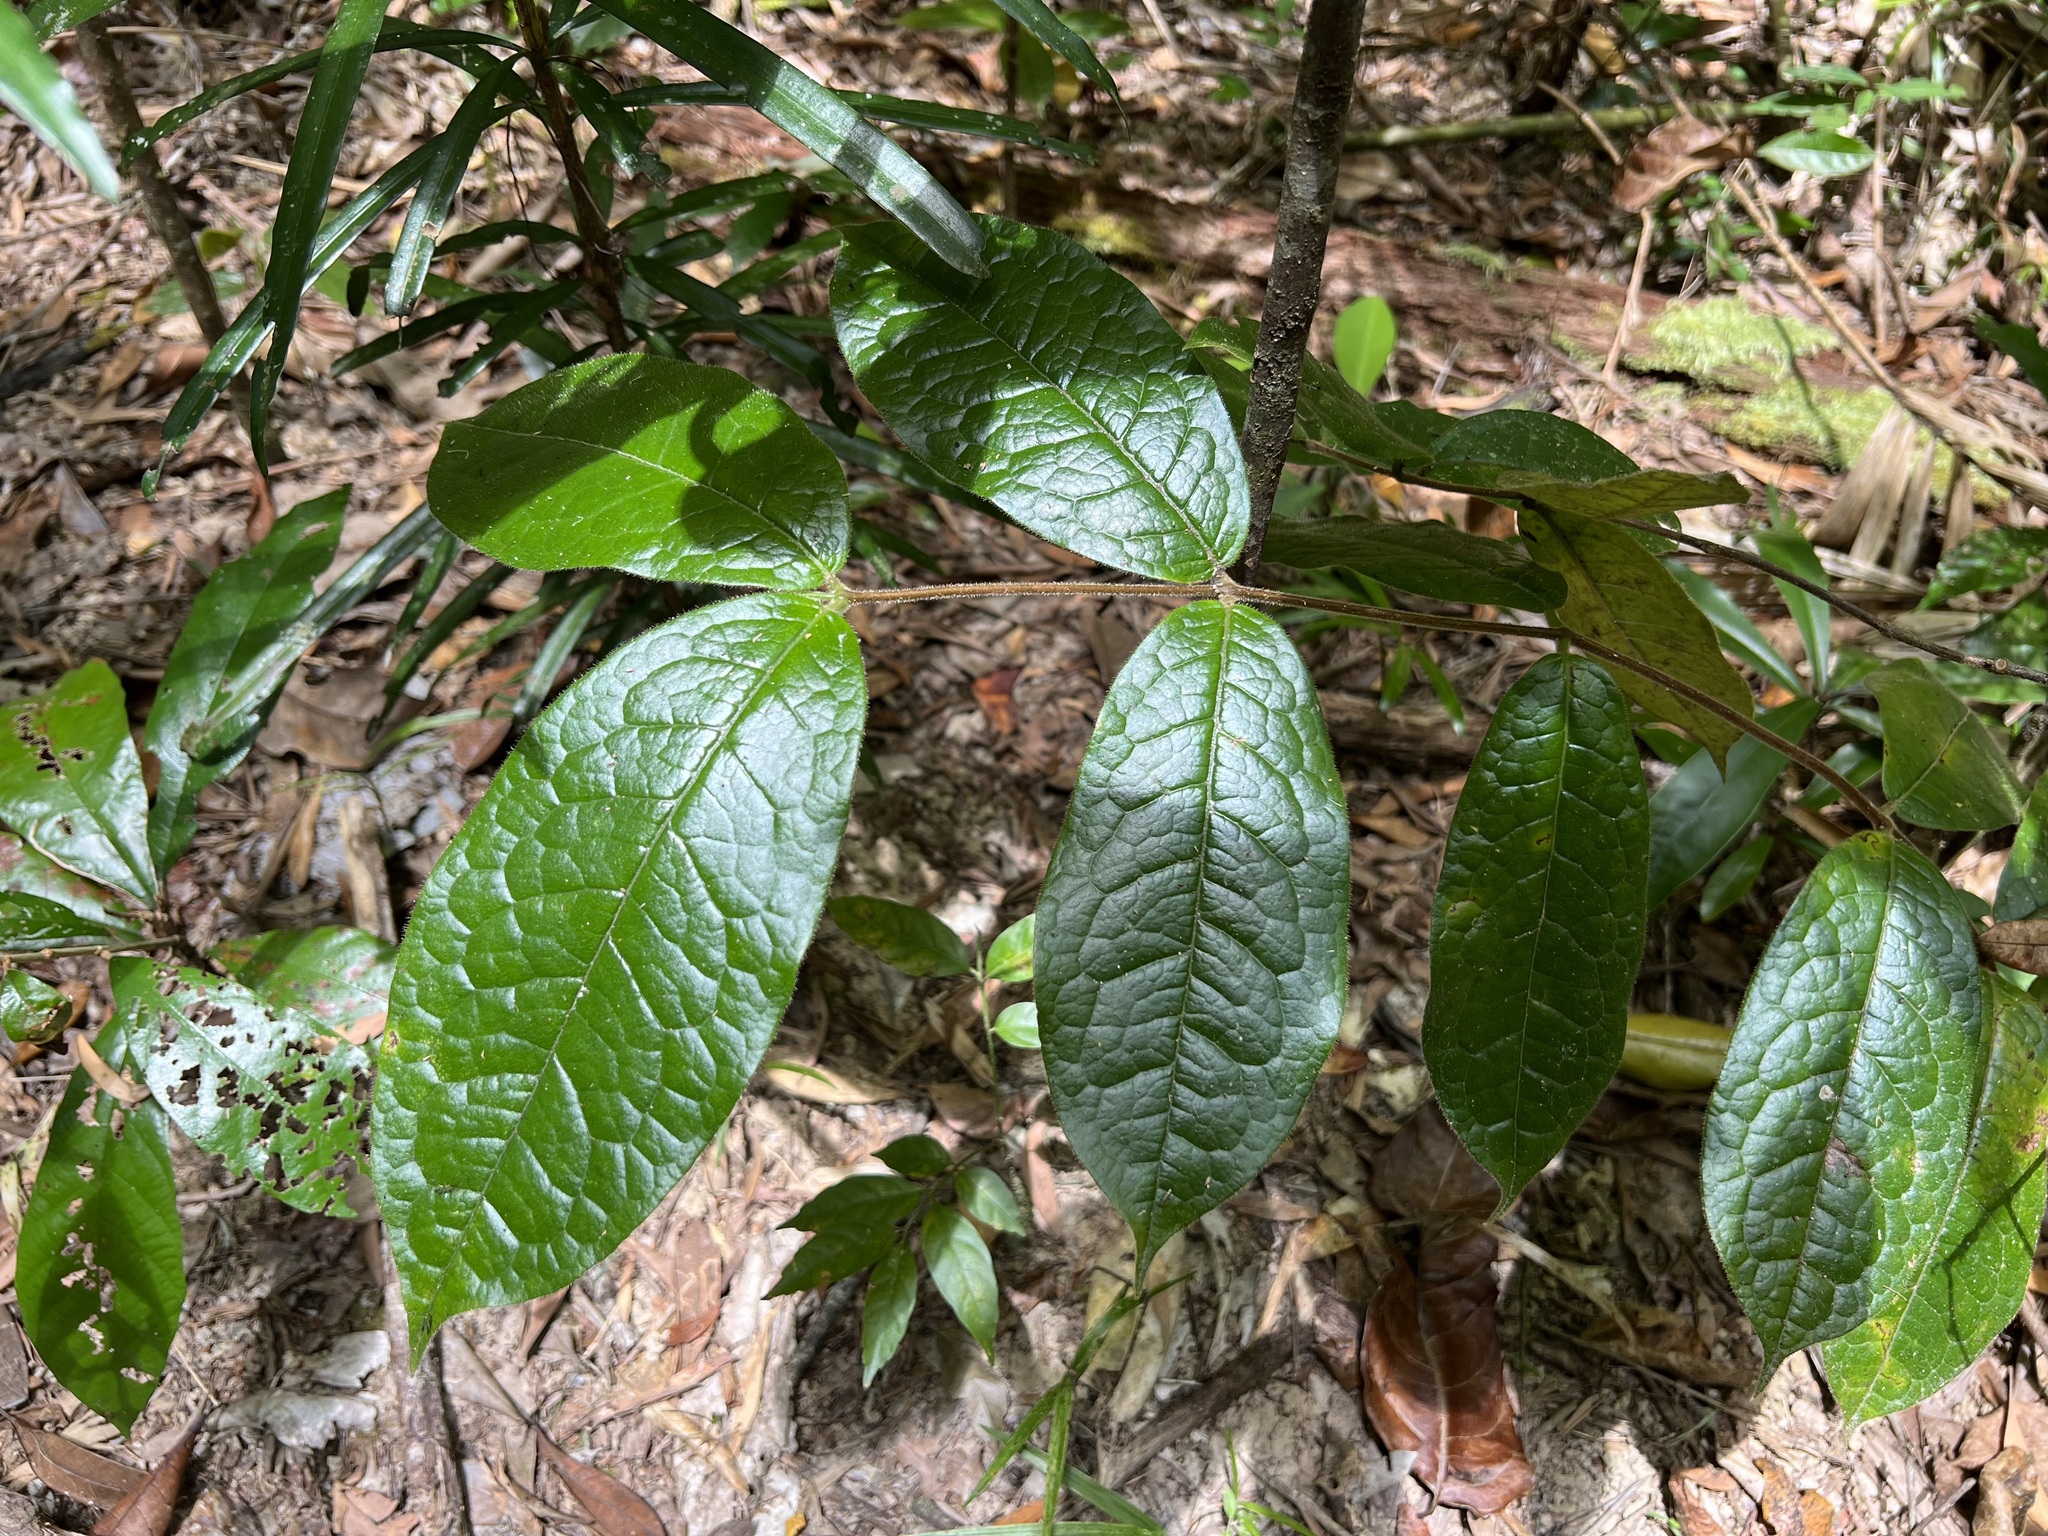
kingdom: Plantae
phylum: Tracheophyta
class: Magnoliopsida
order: Laurales
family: Monimiaceae
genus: Palmeria
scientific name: Palmeria scandens
